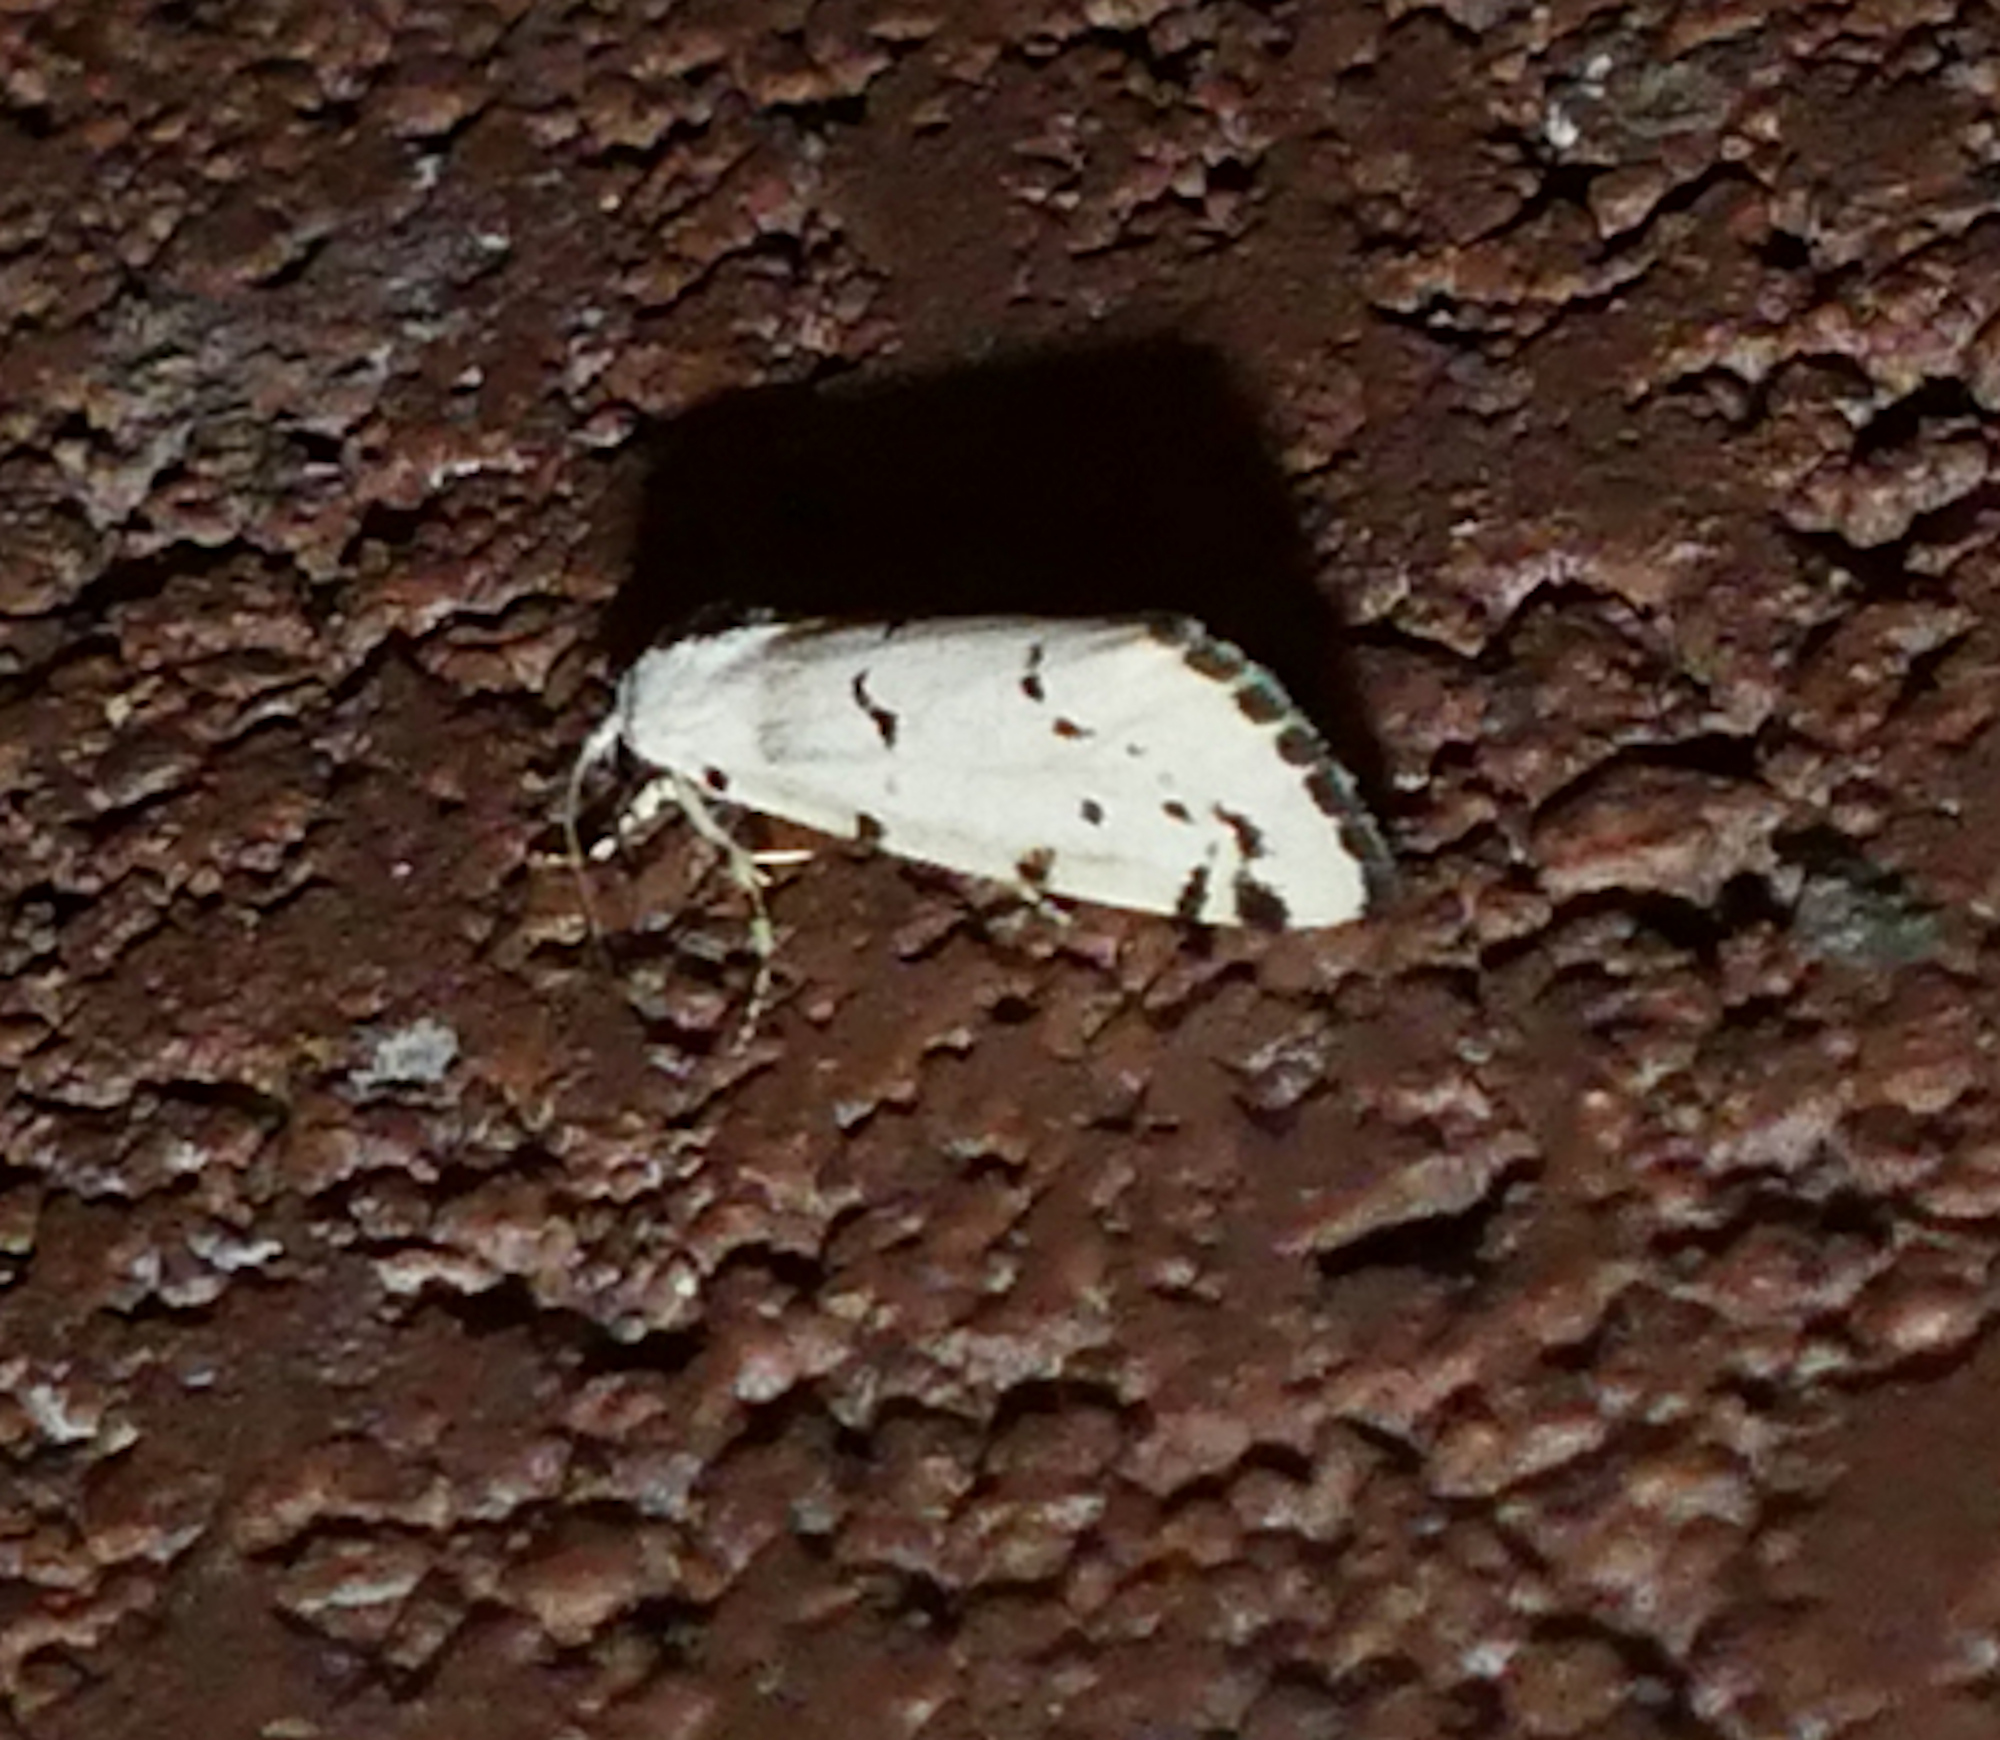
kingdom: Animalia
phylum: Arthropoda
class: Insecta
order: Lepidoptera
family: Noctuidae
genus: Grotella
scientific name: Grotella binda
